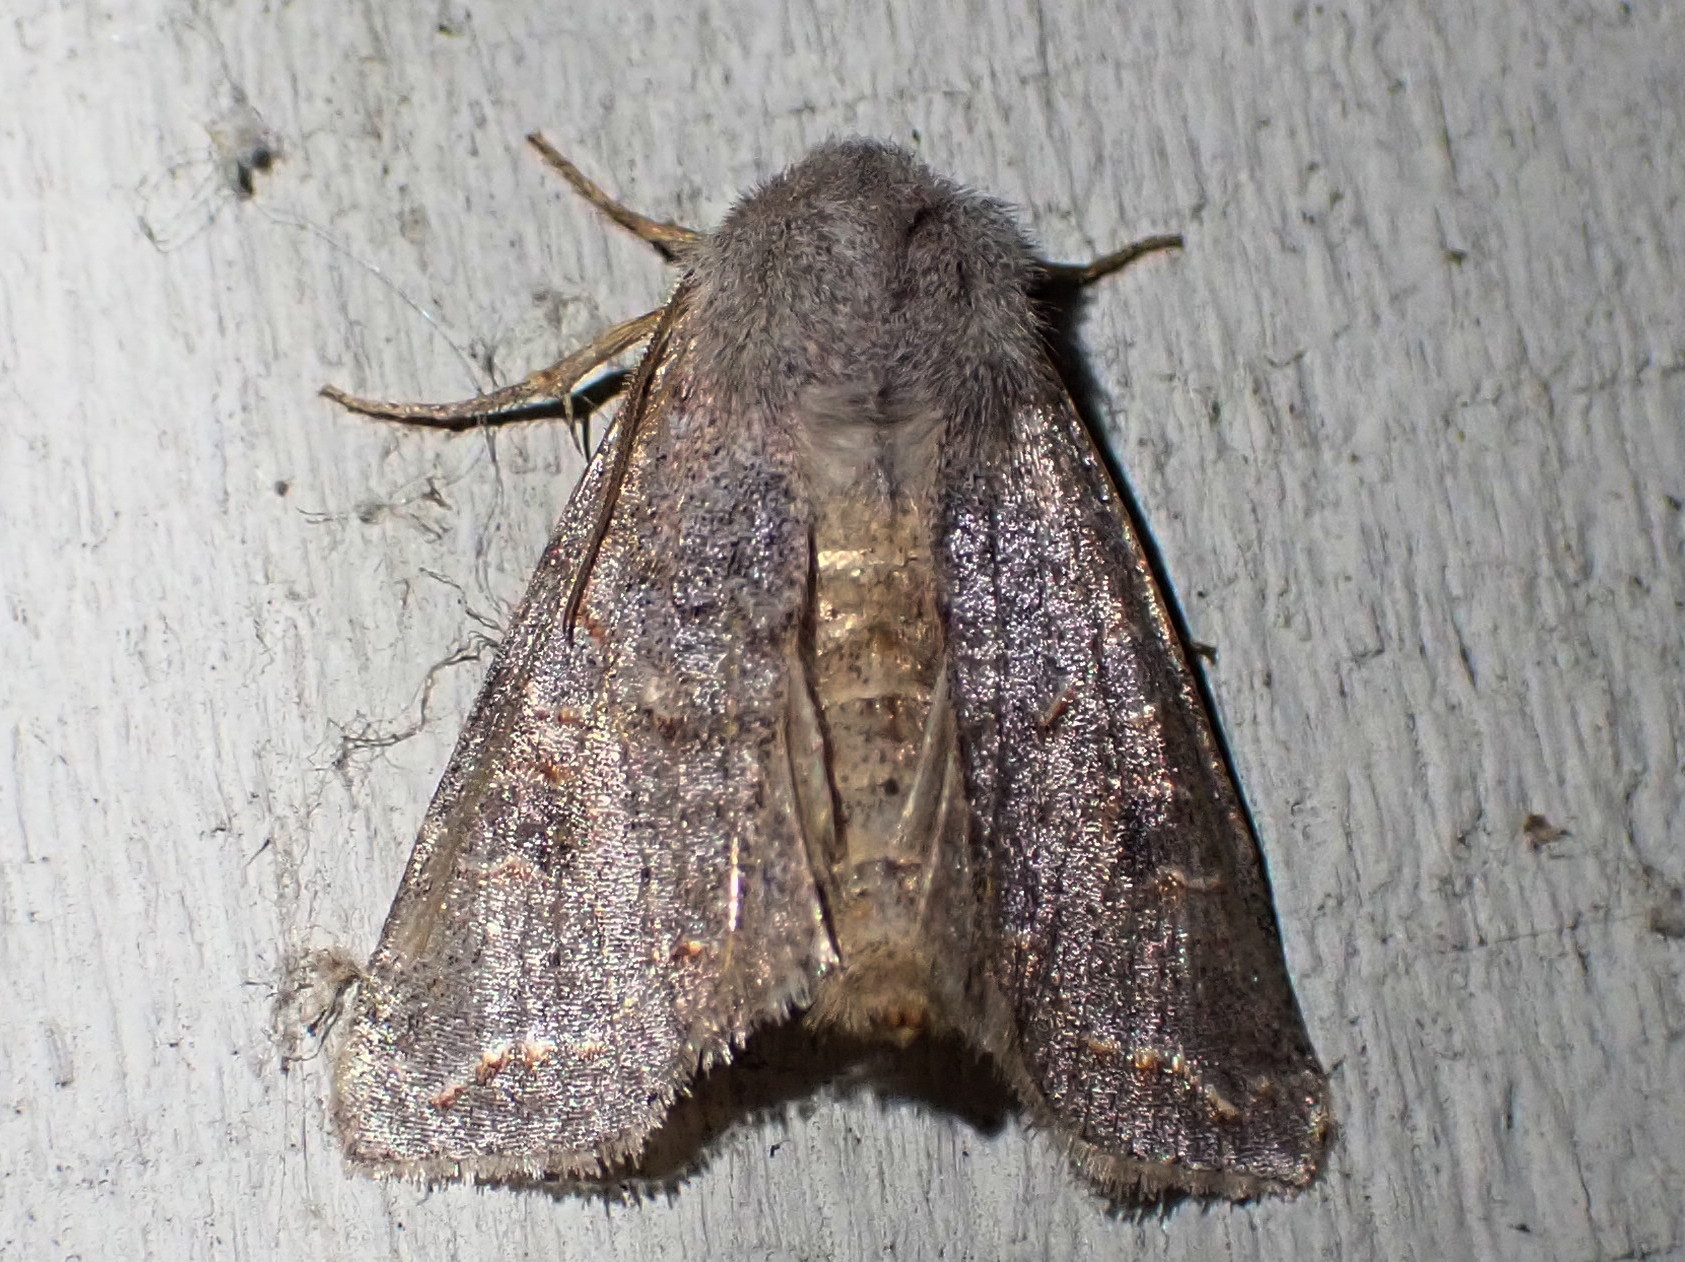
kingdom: Animalia
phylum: Arthropoda
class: Insecta
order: Lepidoptera
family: Noctuidae
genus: Orthosia
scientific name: Orthosia revicta
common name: Rusty whitesided caterpillar
